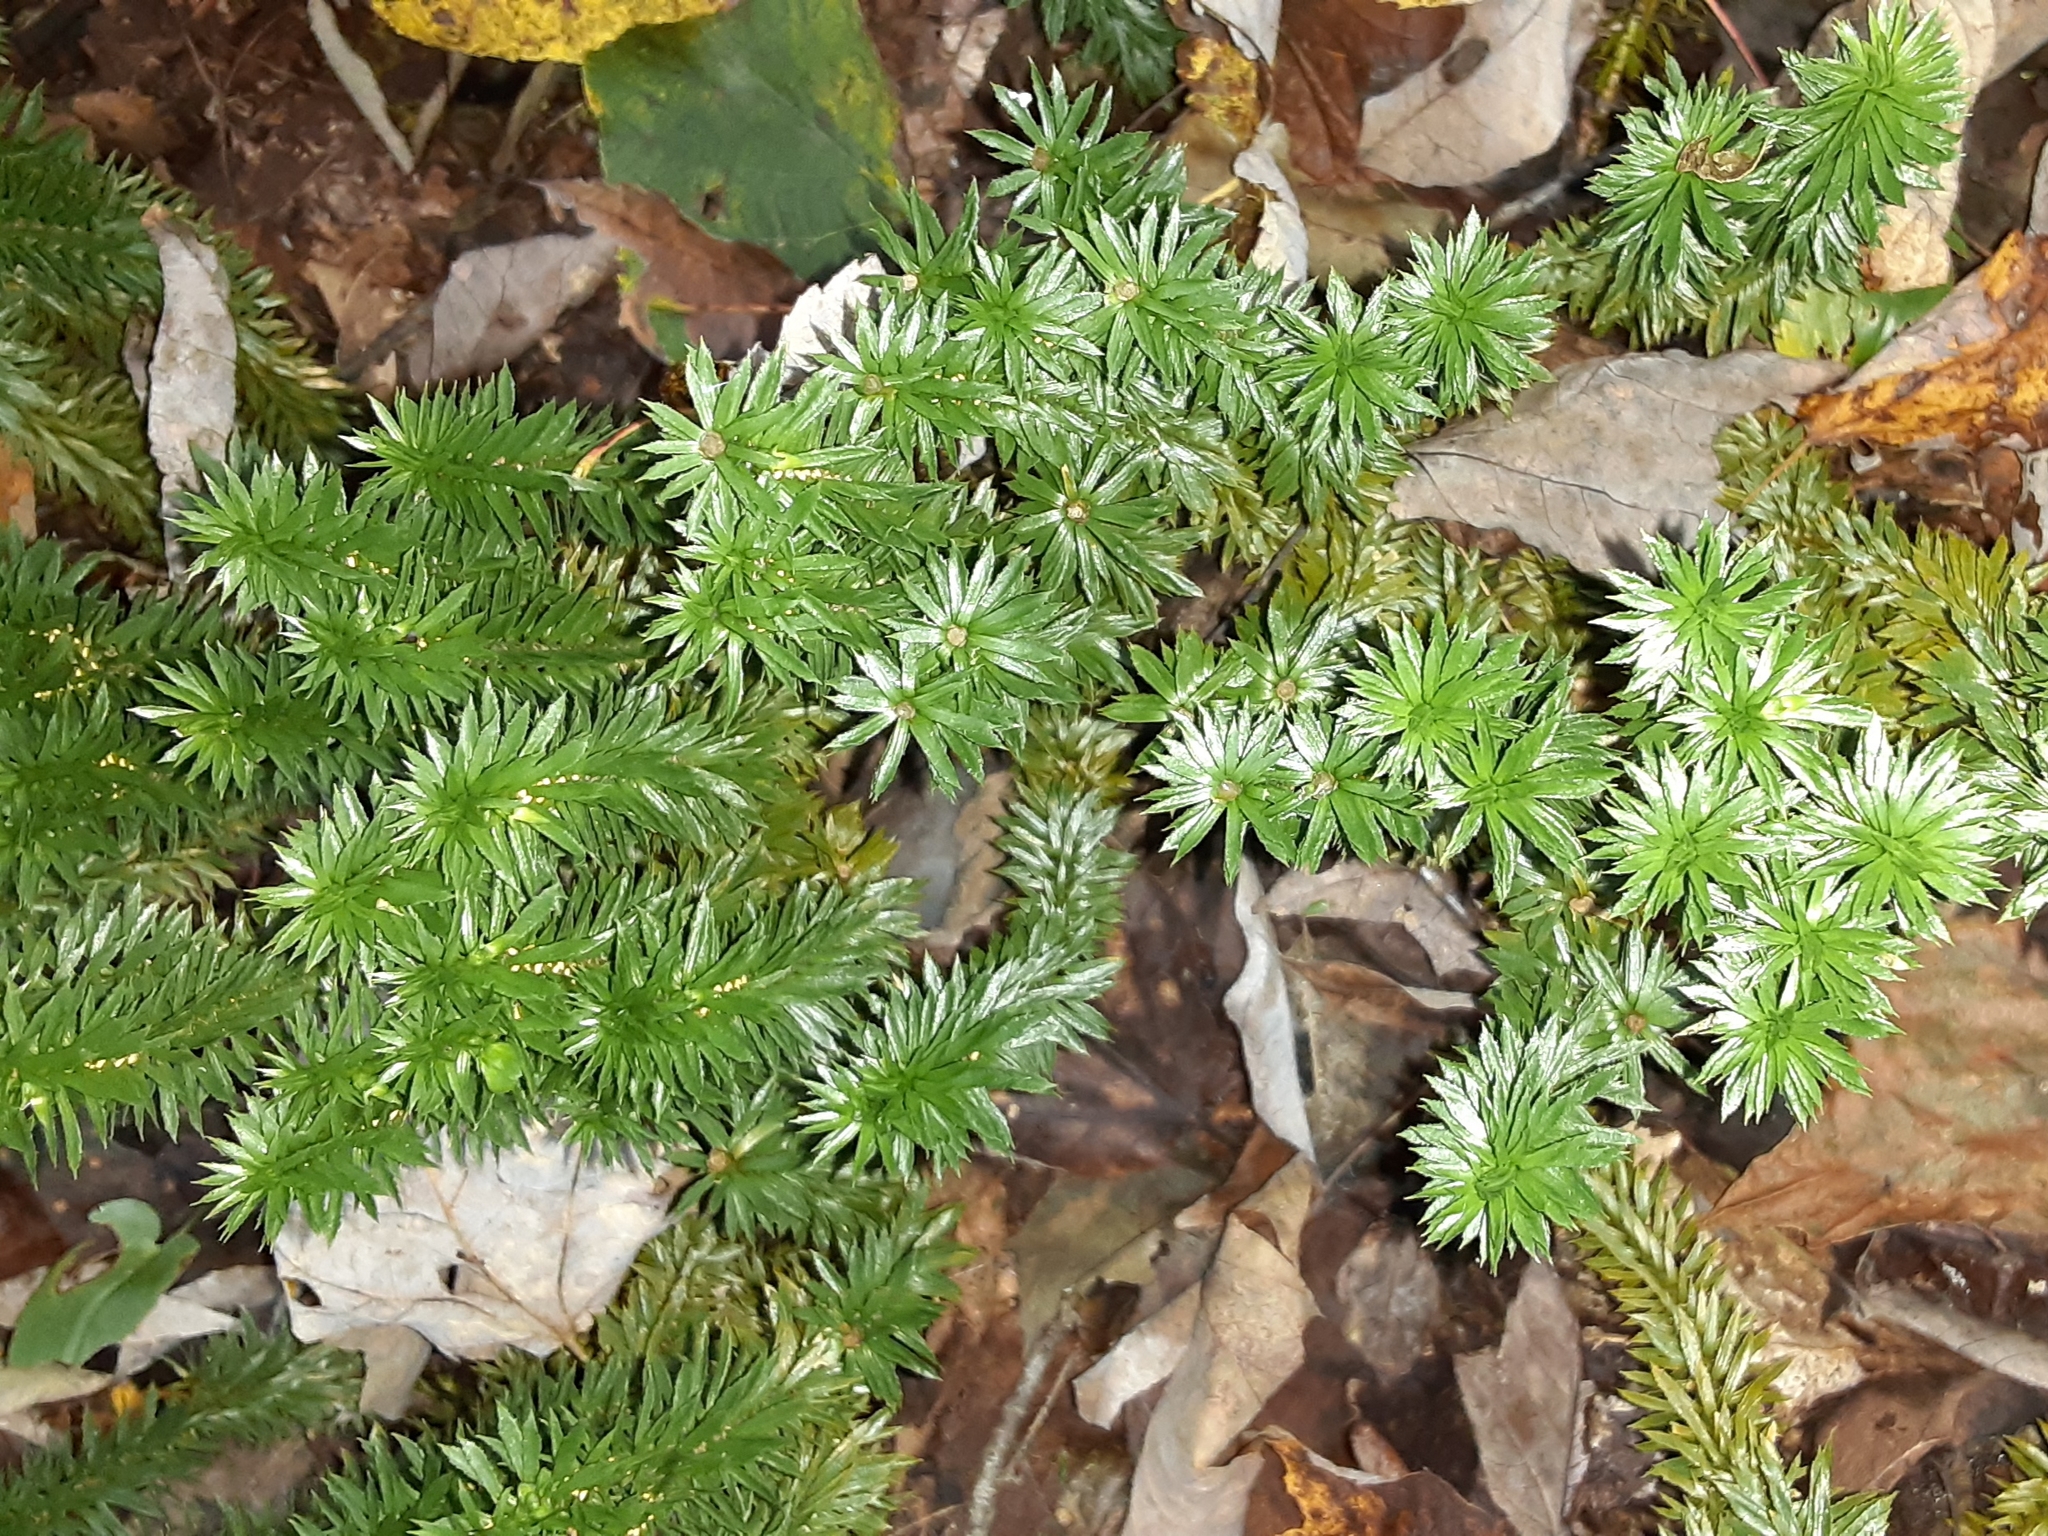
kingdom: Plantae
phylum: Tracheophyta
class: Lycopodiopsida
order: Lycopodiales
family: Lycopodiaceae
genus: Huperzia
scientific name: Huperzia lucidula
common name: Shining clubmoss
